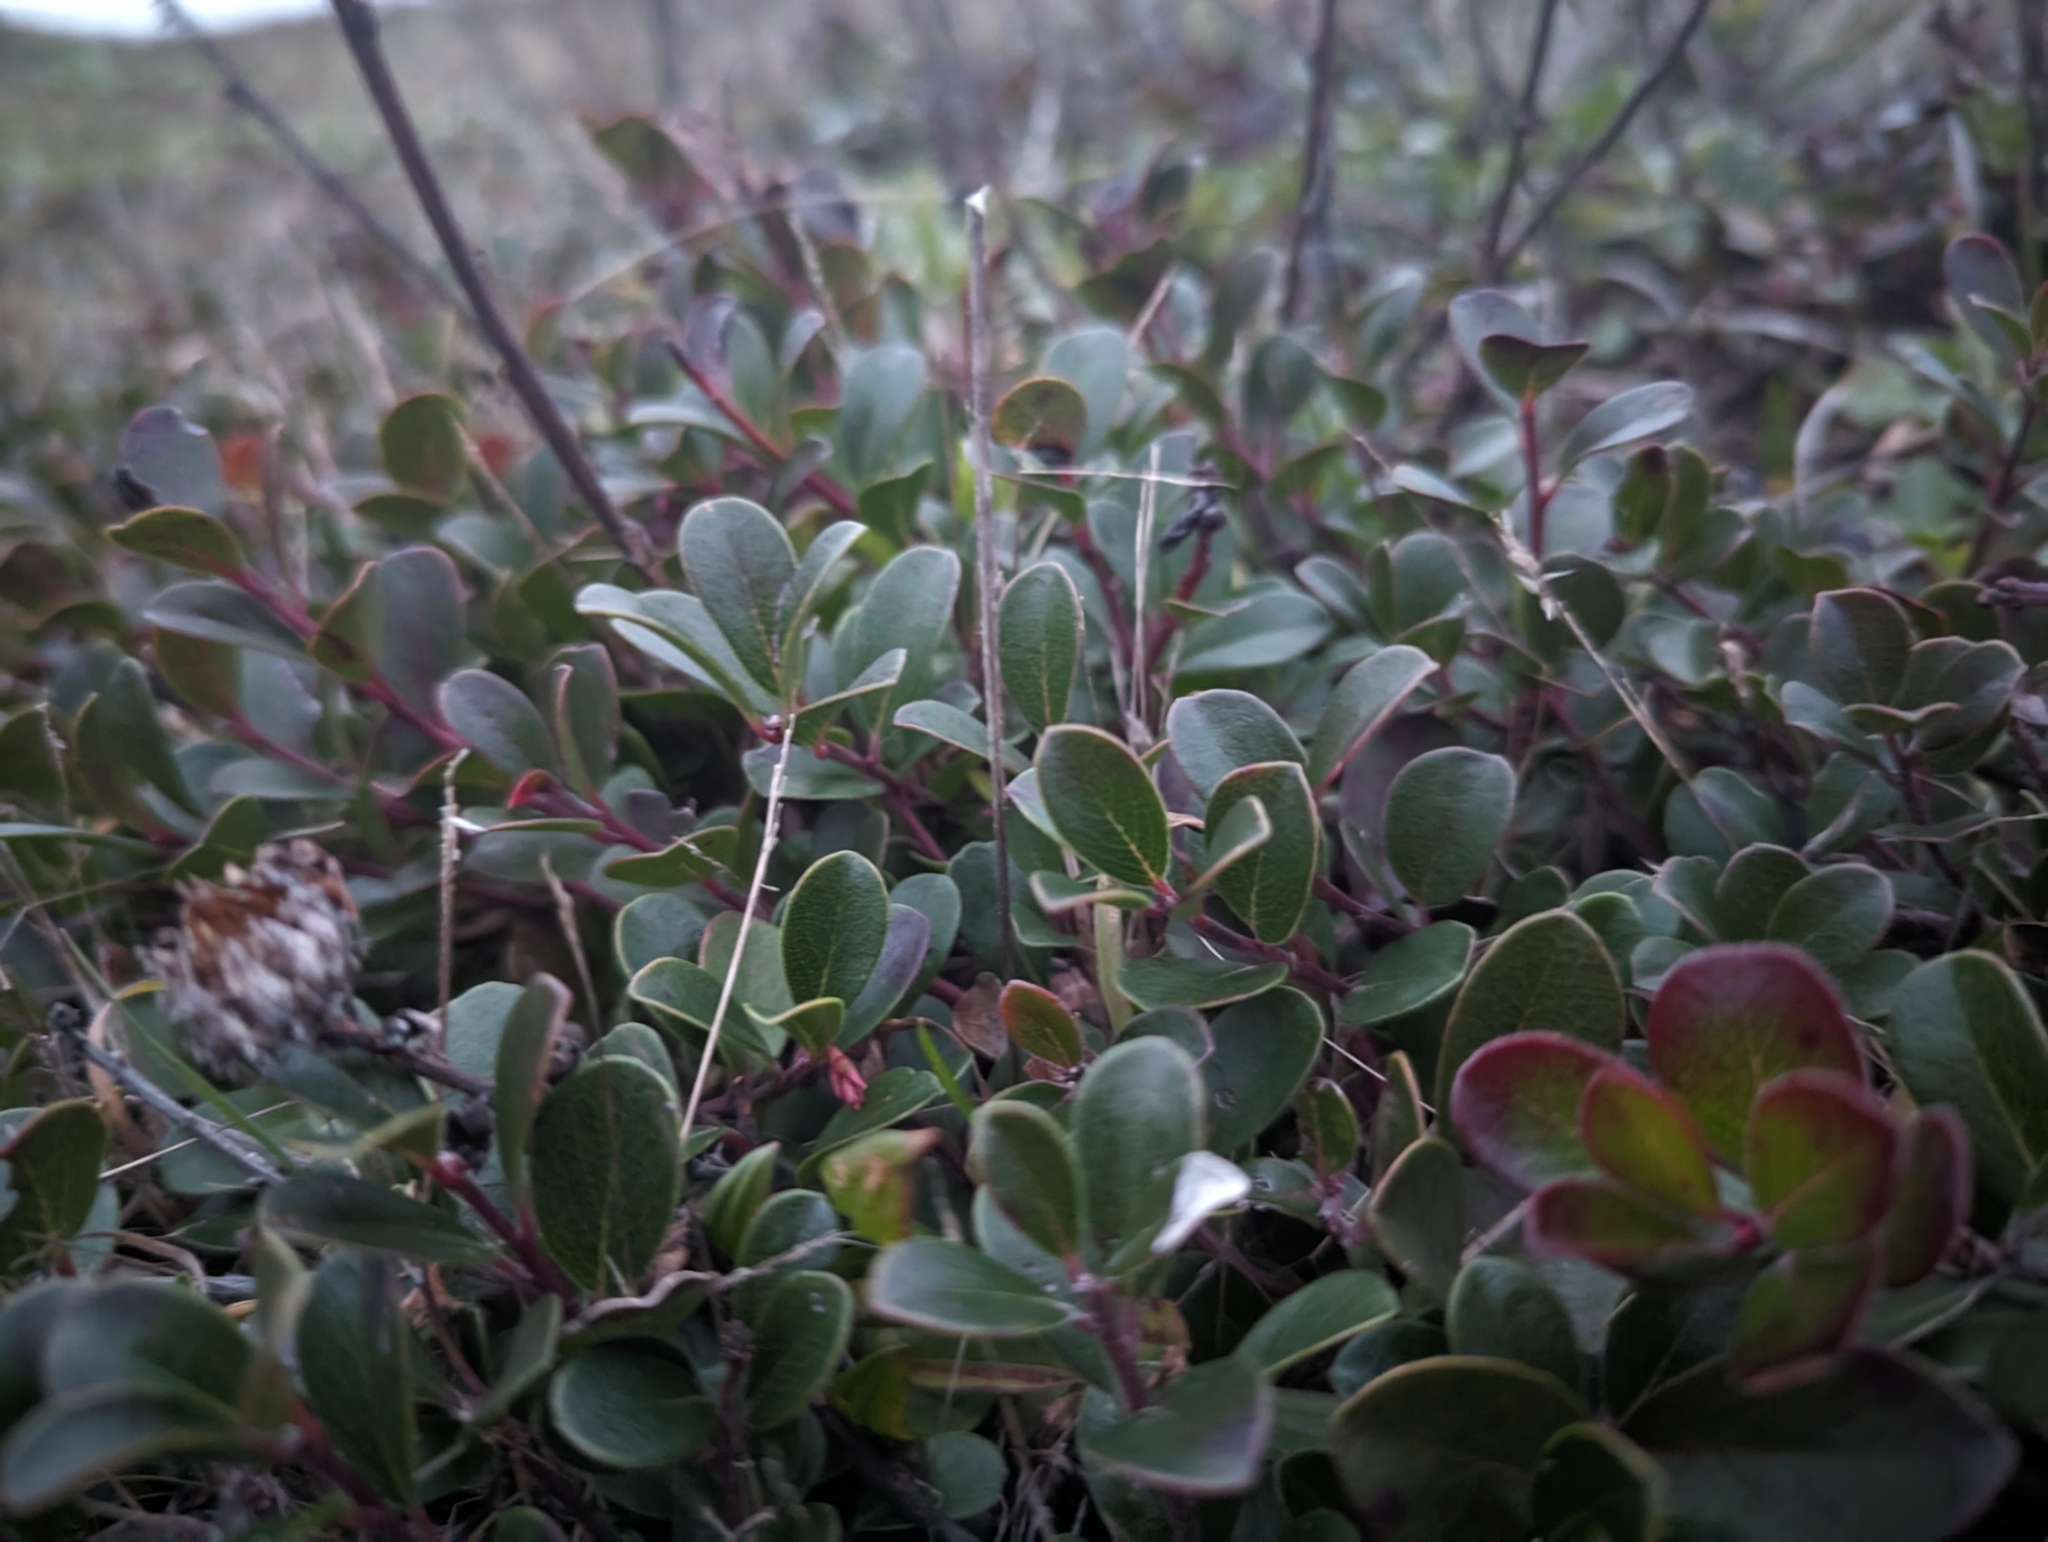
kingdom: Plantae
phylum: Tracheophyta
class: Magnoliopsida
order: Ericales
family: Ericaceae
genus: Arctostaphylos
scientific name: Arctostaphylos uva-ursi
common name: Bearberry
